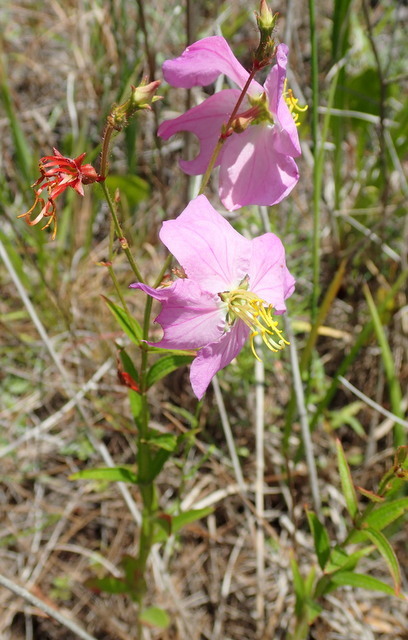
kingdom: Plantae
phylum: Tracheophyta
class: Magnoliopsida
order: Myrtales
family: Melastomataceae
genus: Rhexia
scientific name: Rhexia virginica
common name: Common meadow beauty
